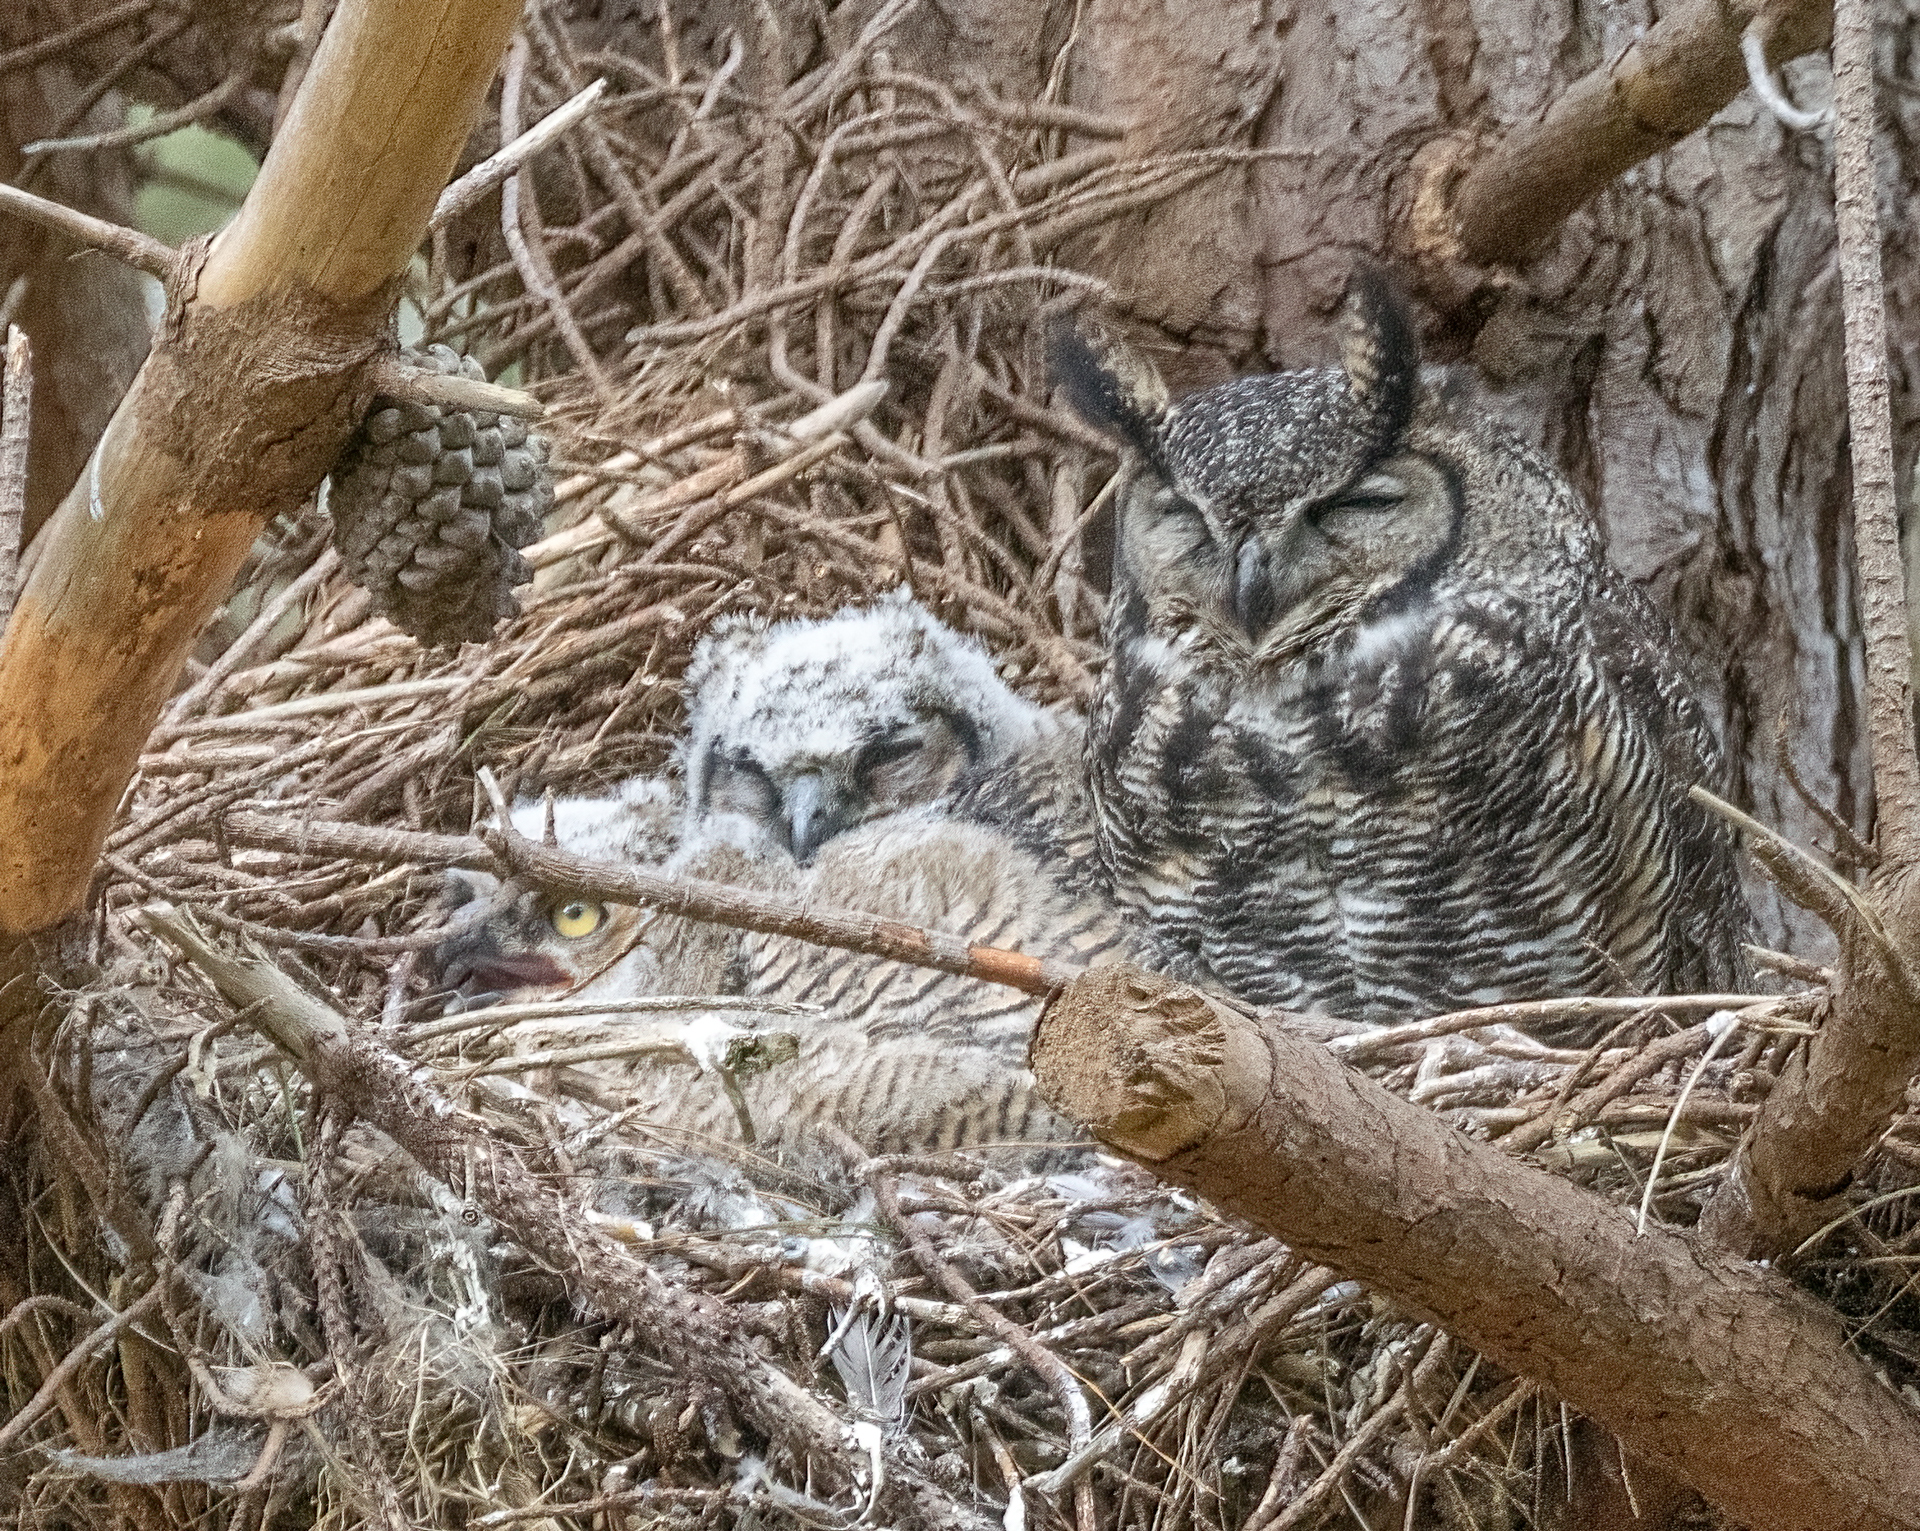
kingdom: Animalia
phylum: Chordata
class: Aves
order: Strigiformes
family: Strigidae
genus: Bubo
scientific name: Bubo virginianus
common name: Great horned owl
